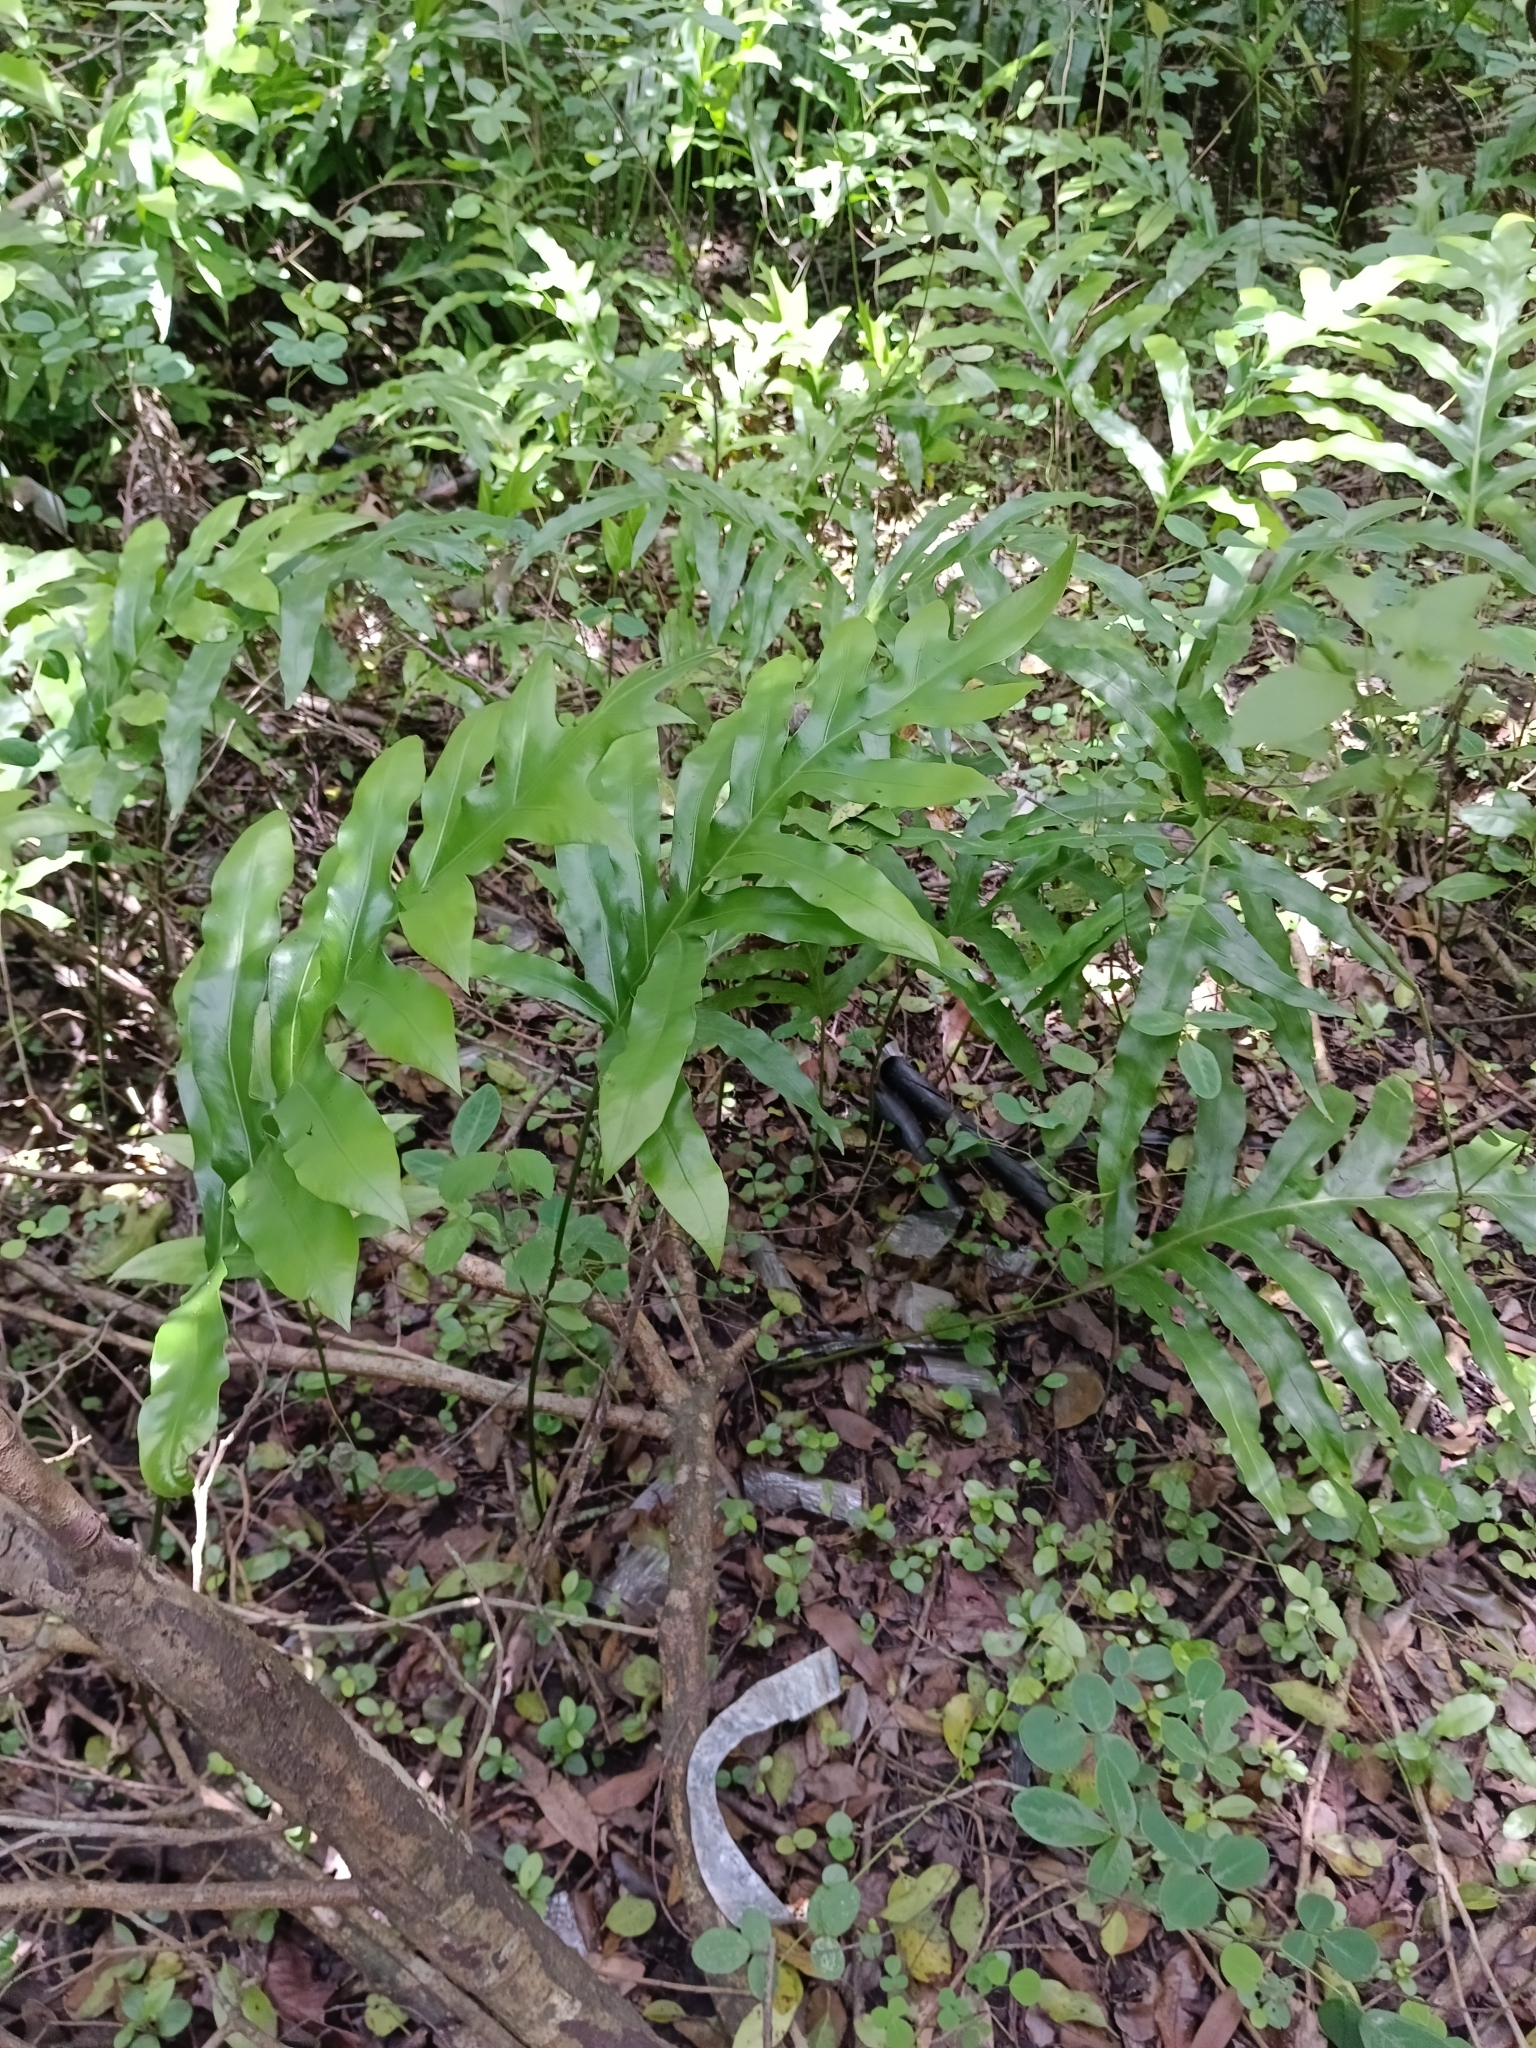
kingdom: Plantae
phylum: Tracheophyta
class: Polypodiopsida
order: Polypodiales
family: Polypodiaceae
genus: Microsorum
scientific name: Microsorum scolopendria
